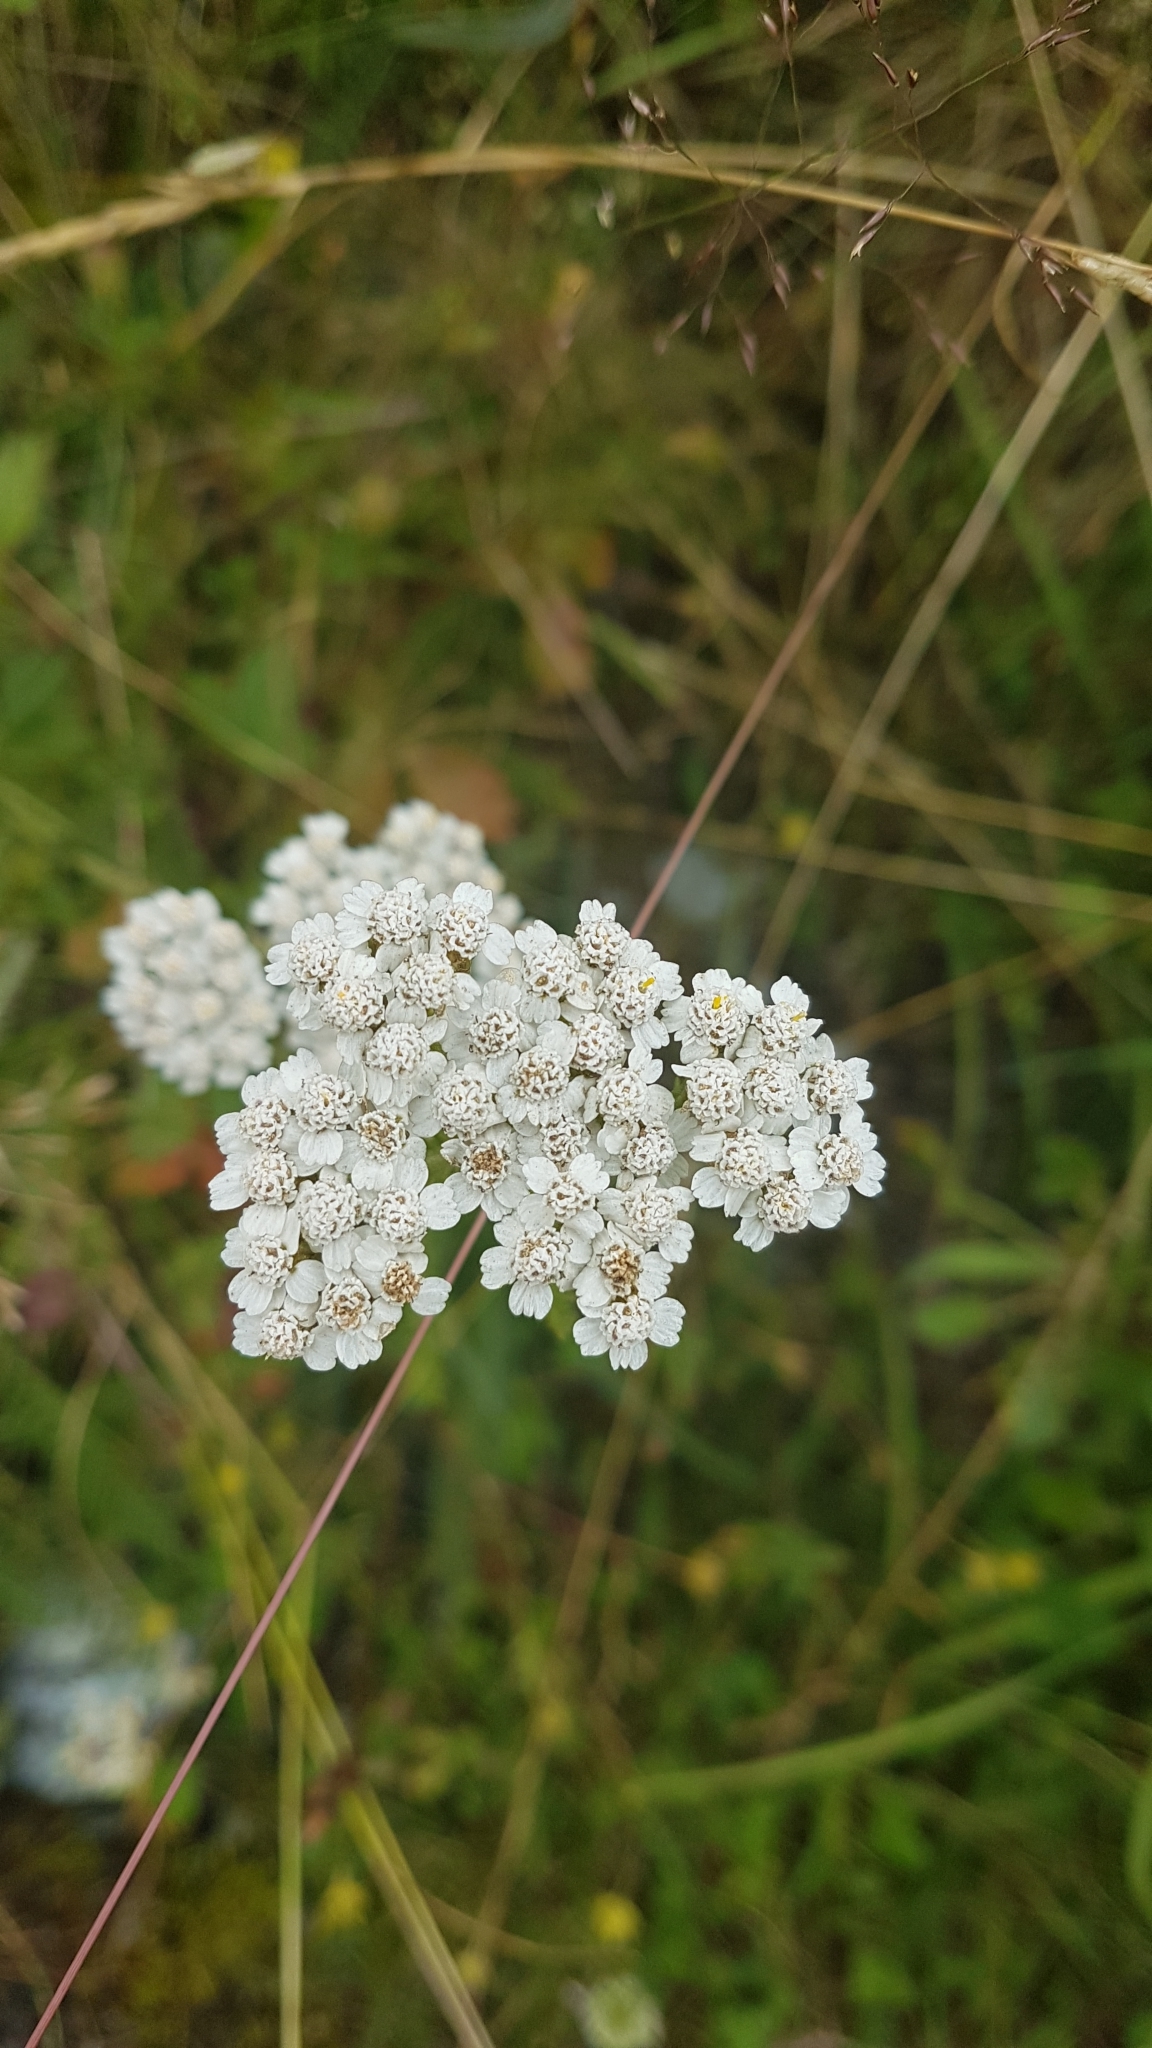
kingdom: Plantae
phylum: Tracheophyta
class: Magnoliopsida
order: Asterales
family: Asteraceae
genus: Achillea
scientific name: Achillea millefolium
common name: Yarrow
